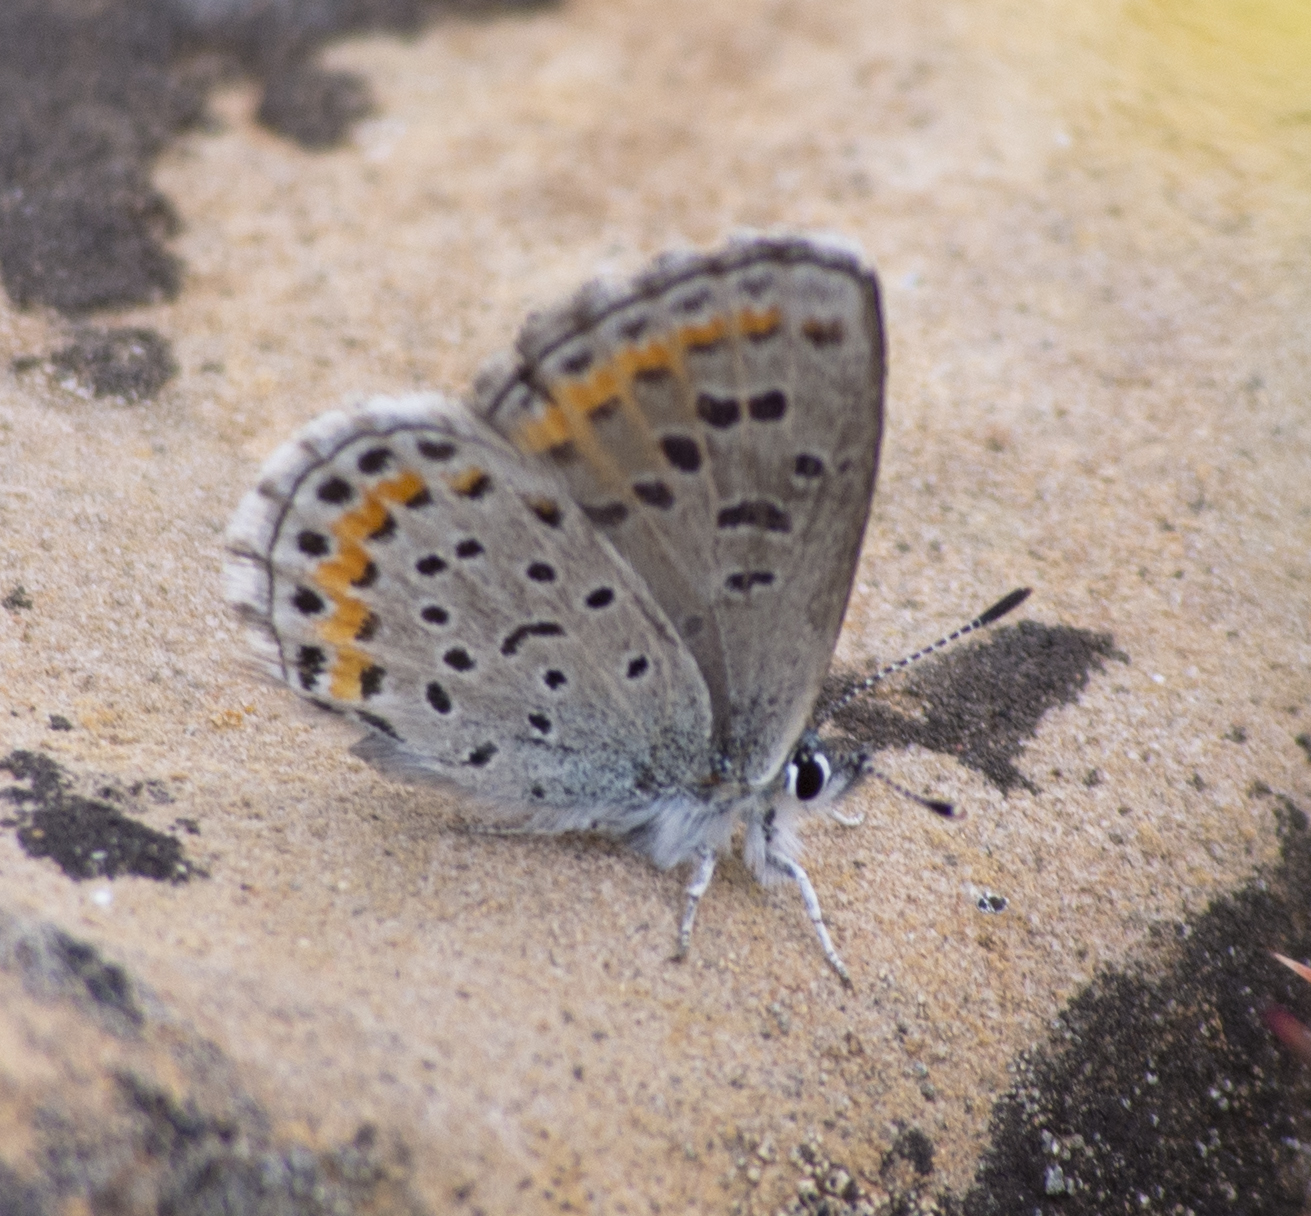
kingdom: Animalia
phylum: Arthropoda
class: Insecta
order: Lepidoptera
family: Lycaenidae
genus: Euphilotes
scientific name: Euphilotes spaldingi
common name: Spalding's blue
